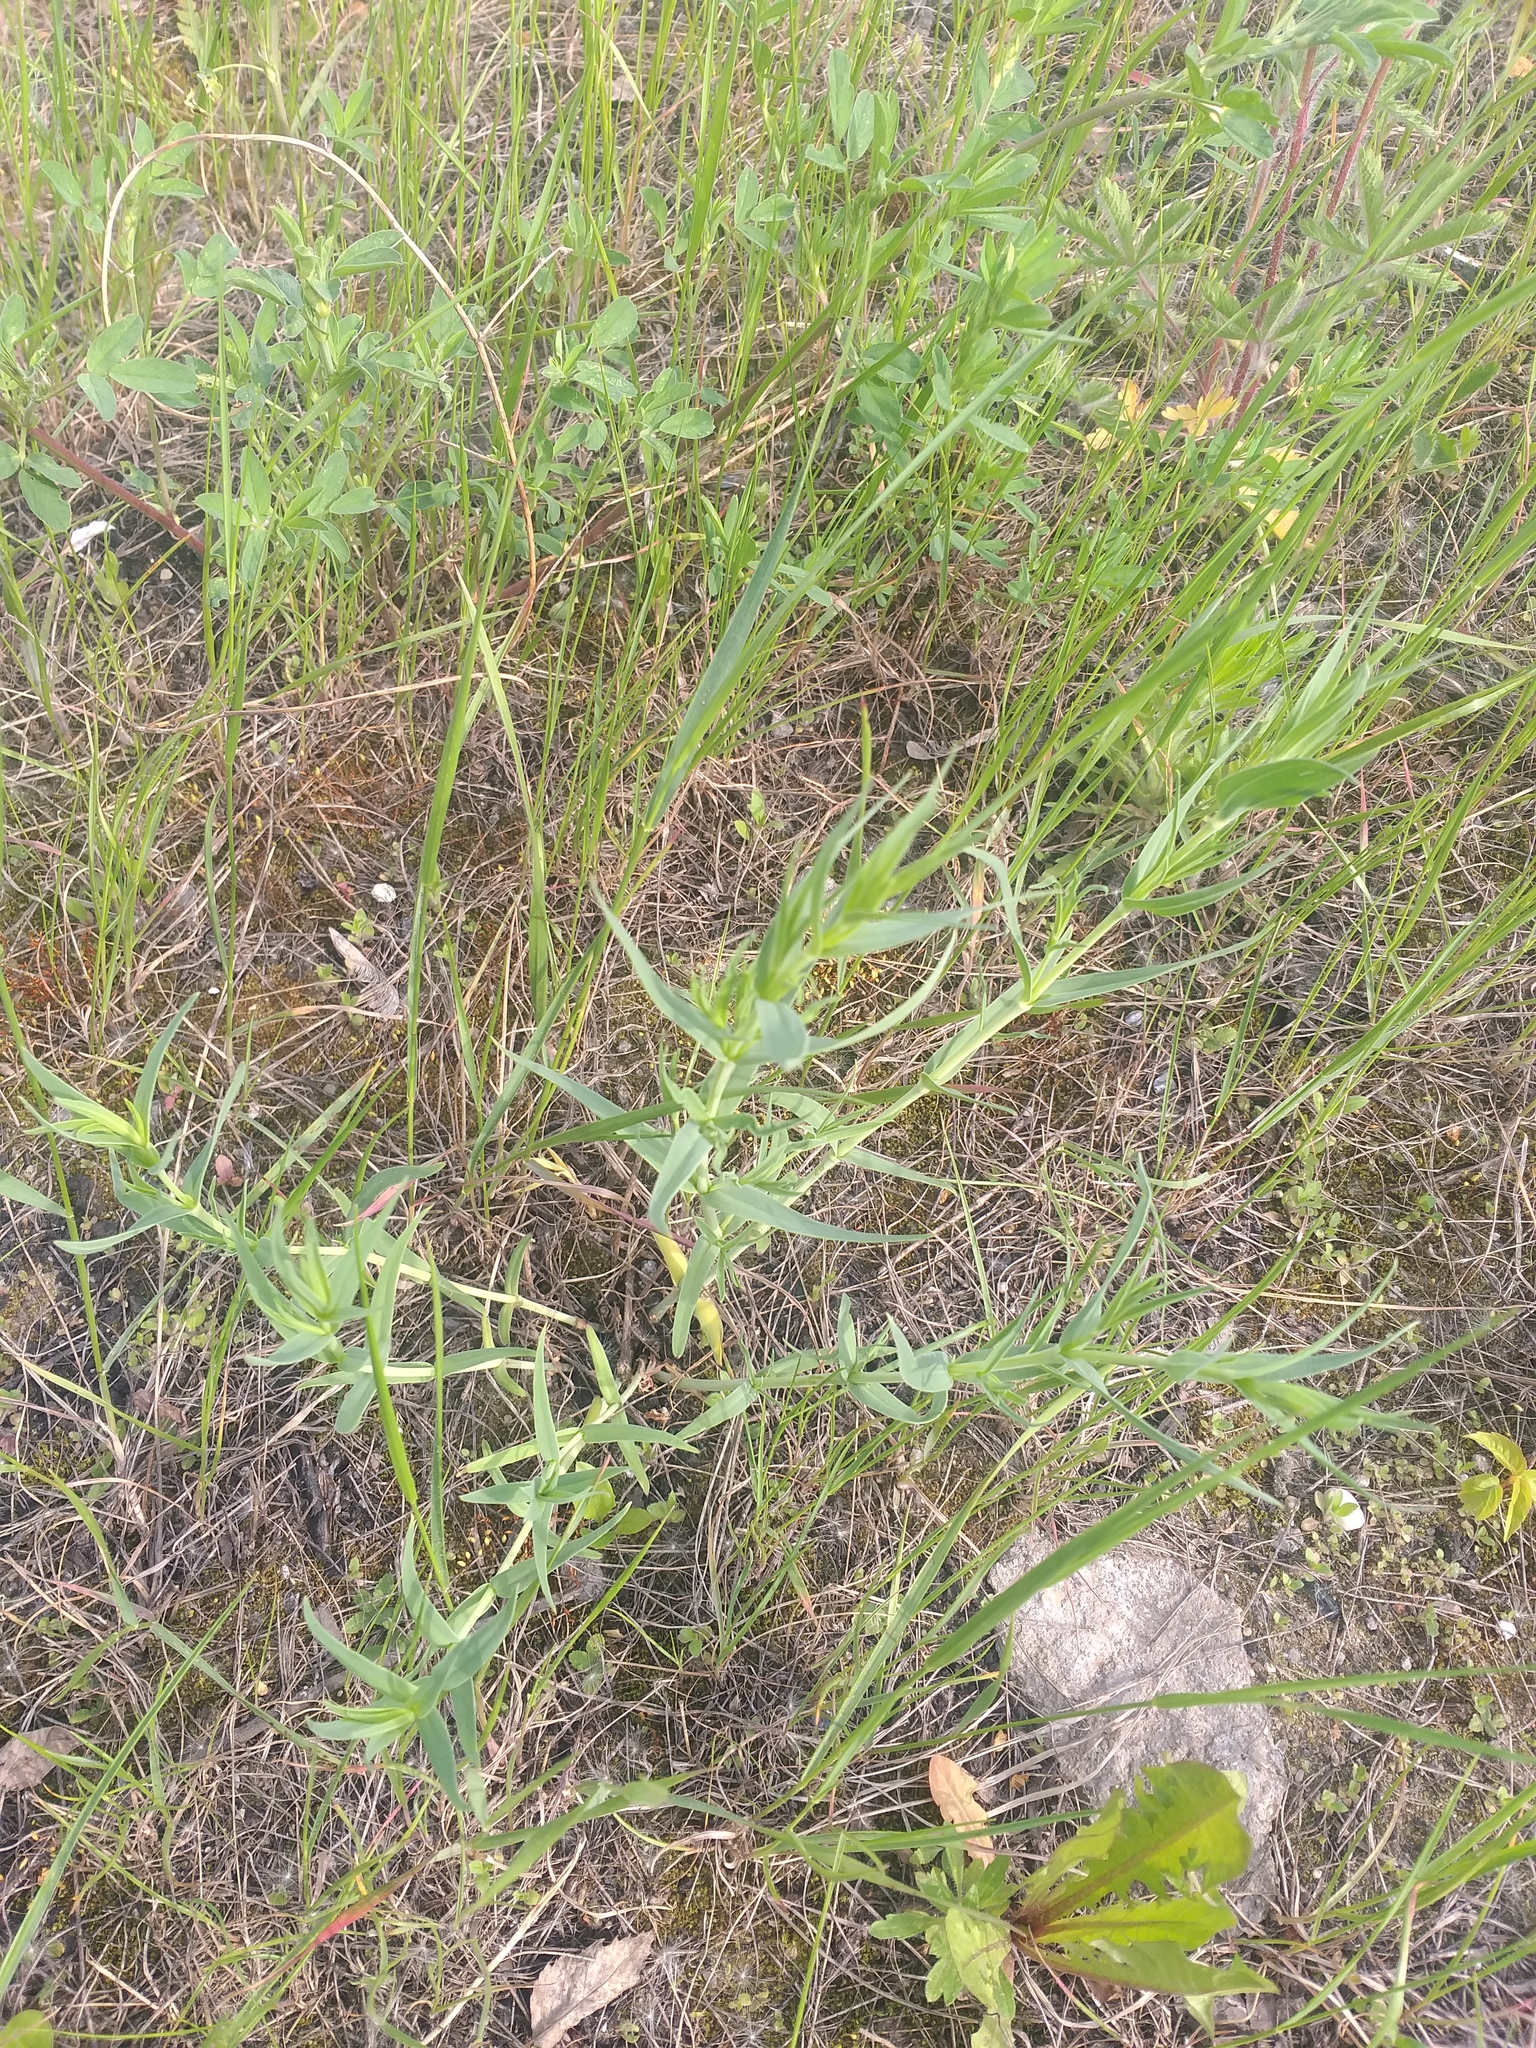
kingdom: Plantae
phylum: Tracheophyta
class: Magnoliopsida
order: Caryophyllales
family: Caryophyllaceae
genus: Gypsophila
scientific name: Gypsophila paniculata
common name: Baby's-breath
